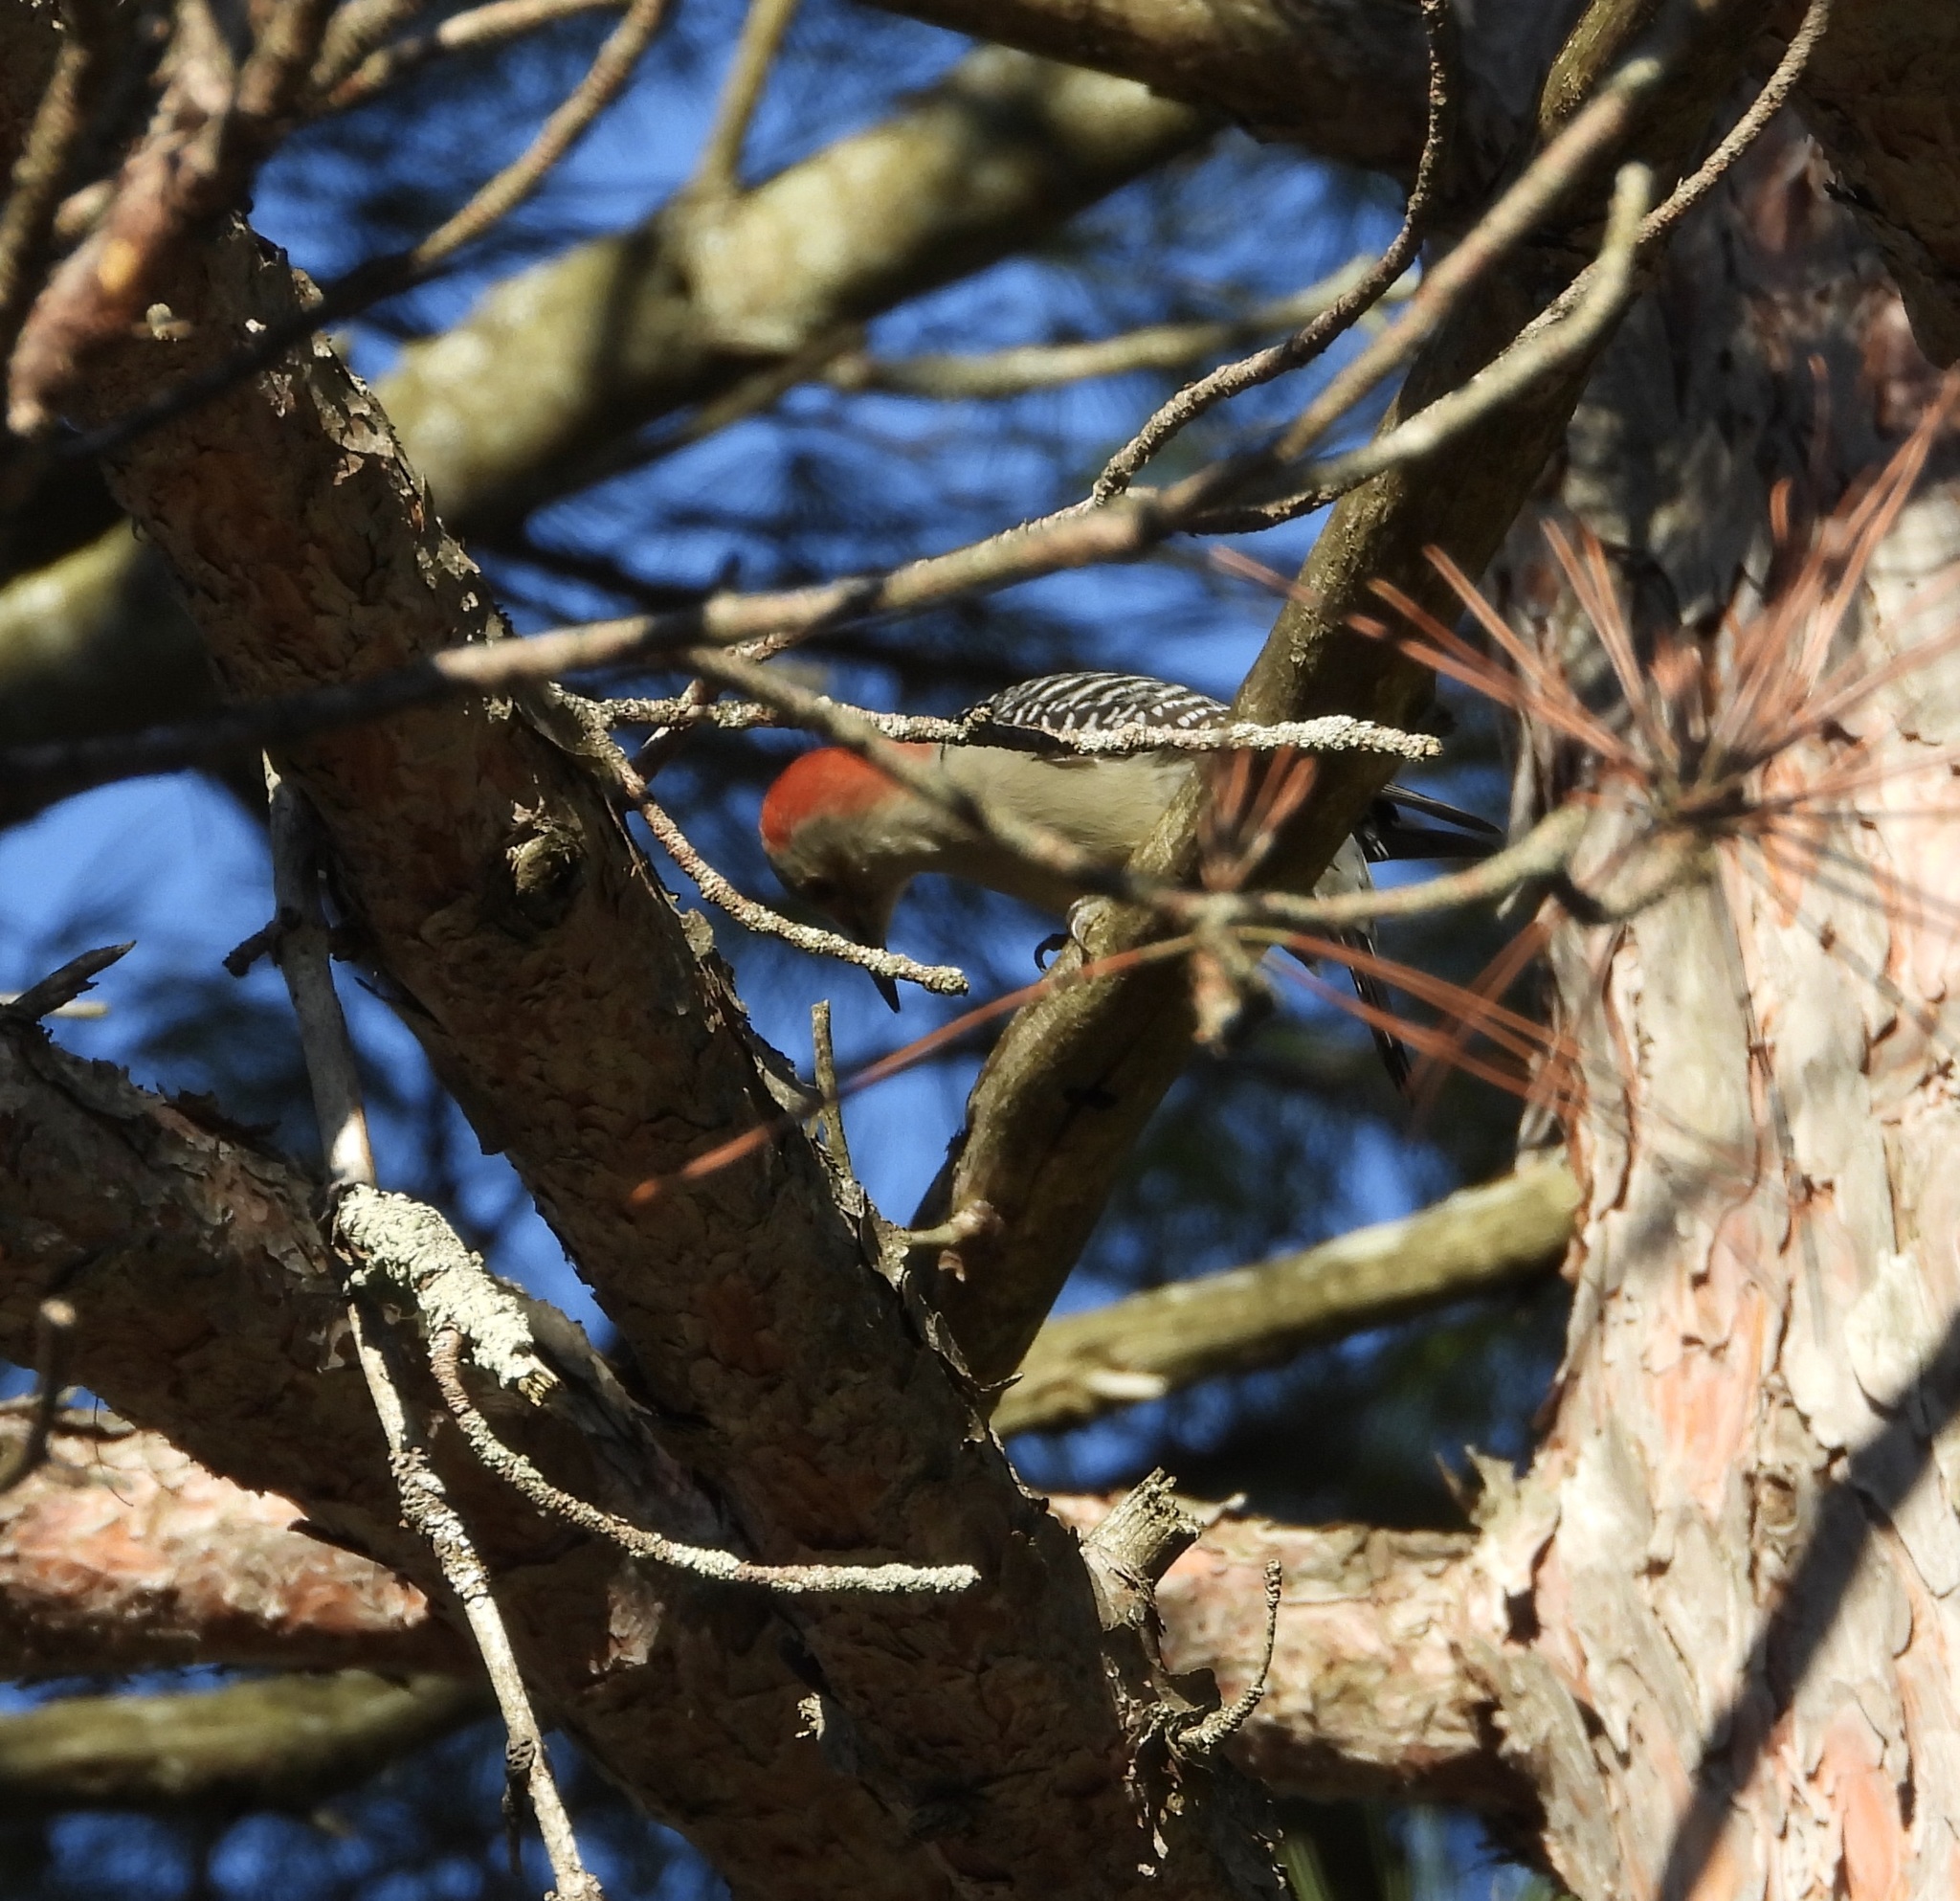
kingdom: Animalia
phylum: Chordata
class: Aves
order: Piciformes
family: Picidae
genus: Melanerpes
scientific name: Melanerpes carolinus
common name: Red-bellied woodpecker
